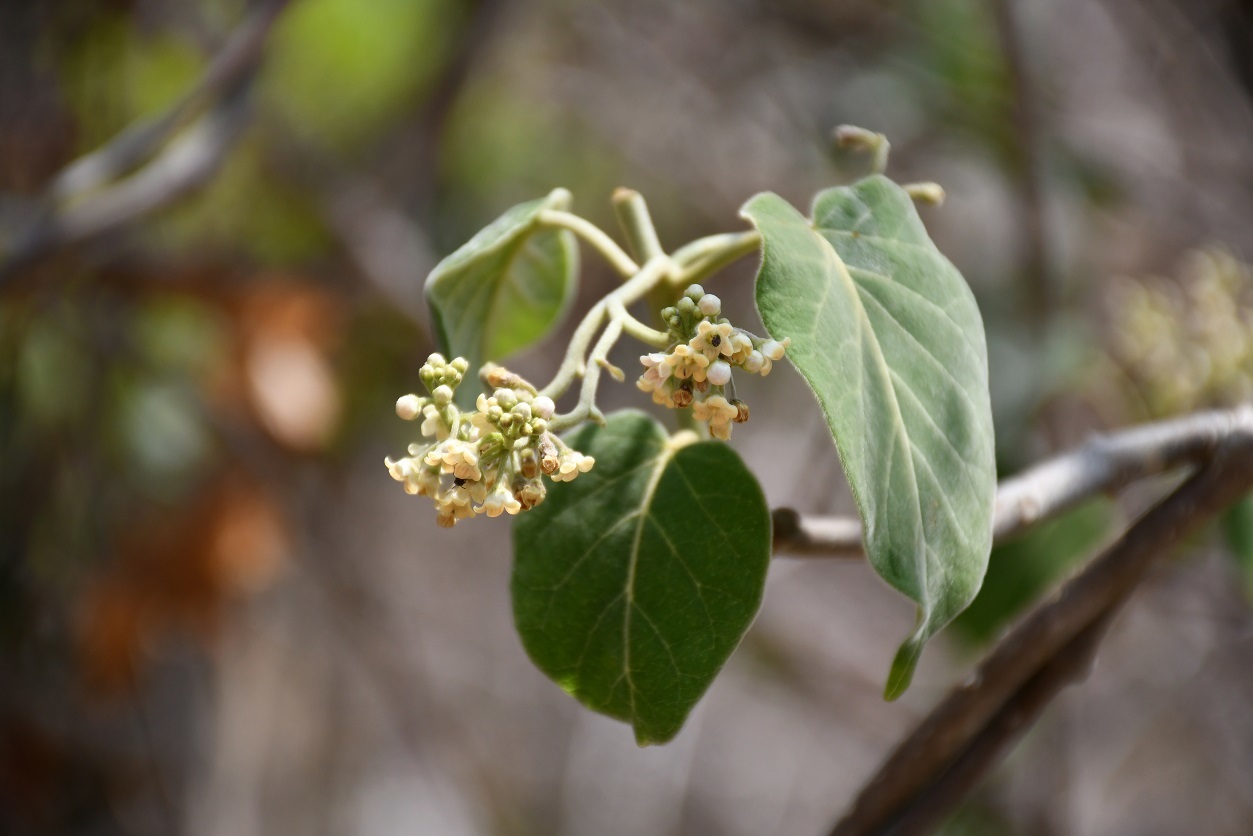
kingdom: Plantae
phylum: Tracheophyta
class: Magnoliopsida
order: Gentianales
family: Apocynaceae
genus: Ruehssia
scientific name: Ruehssia mexicana
